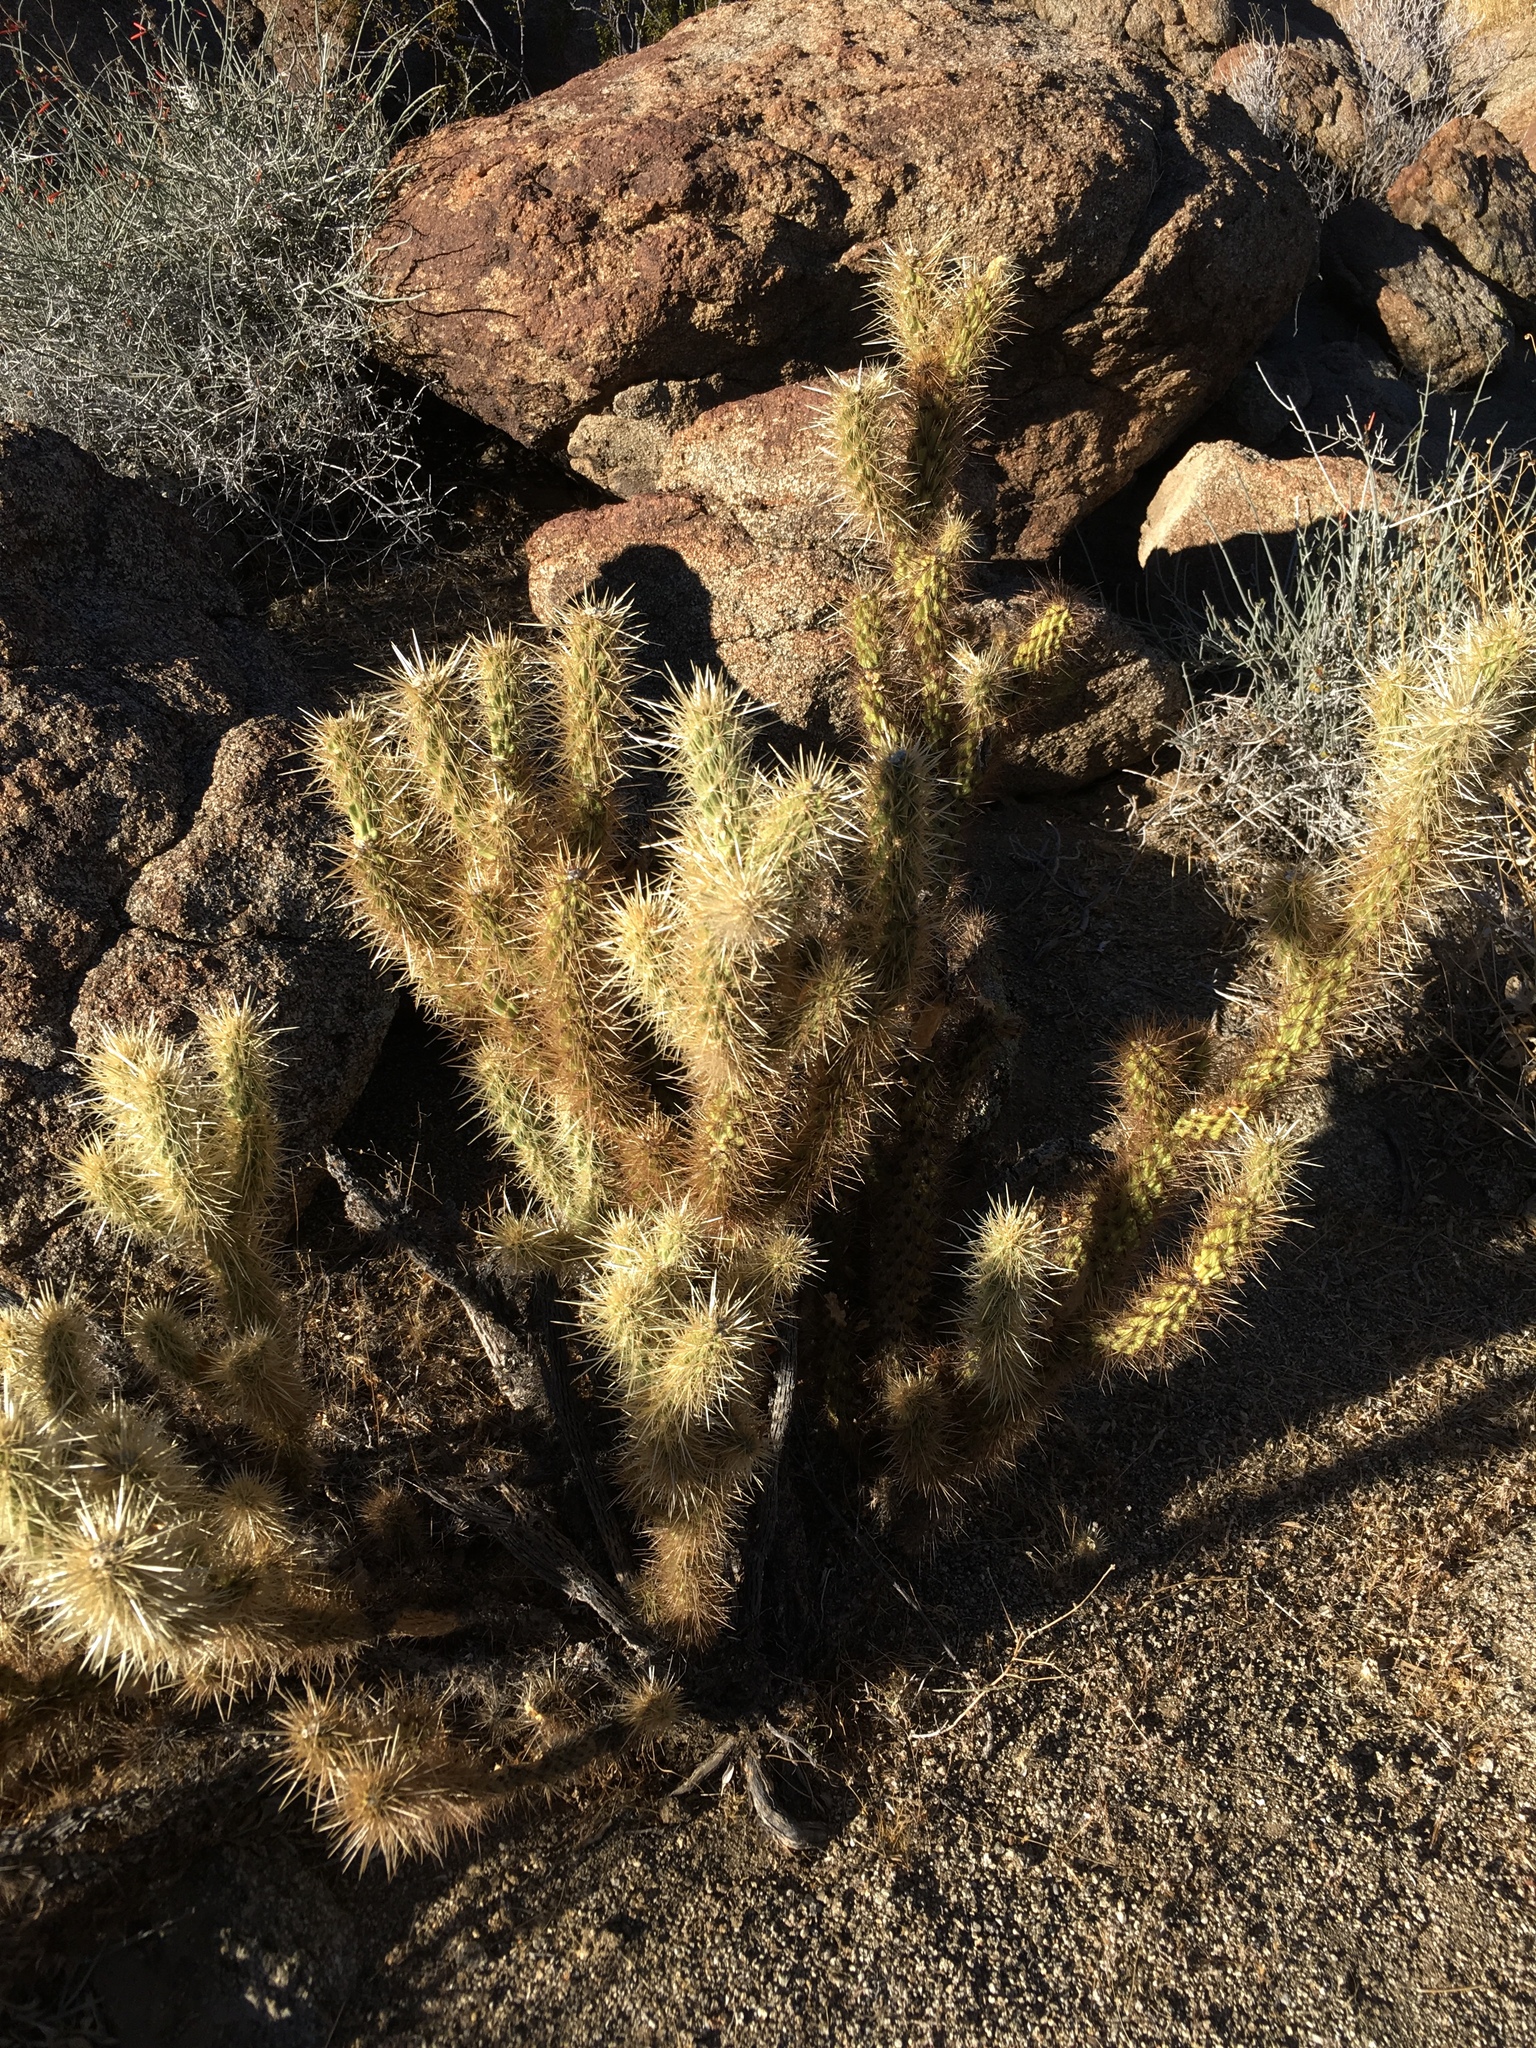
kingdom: Plantae
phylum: Tracheophyta
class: Magnoliopsida
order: Caryophyllales
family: Cactaceae
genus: Cylindropuntia
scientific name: Cylindropuntia ganderi
